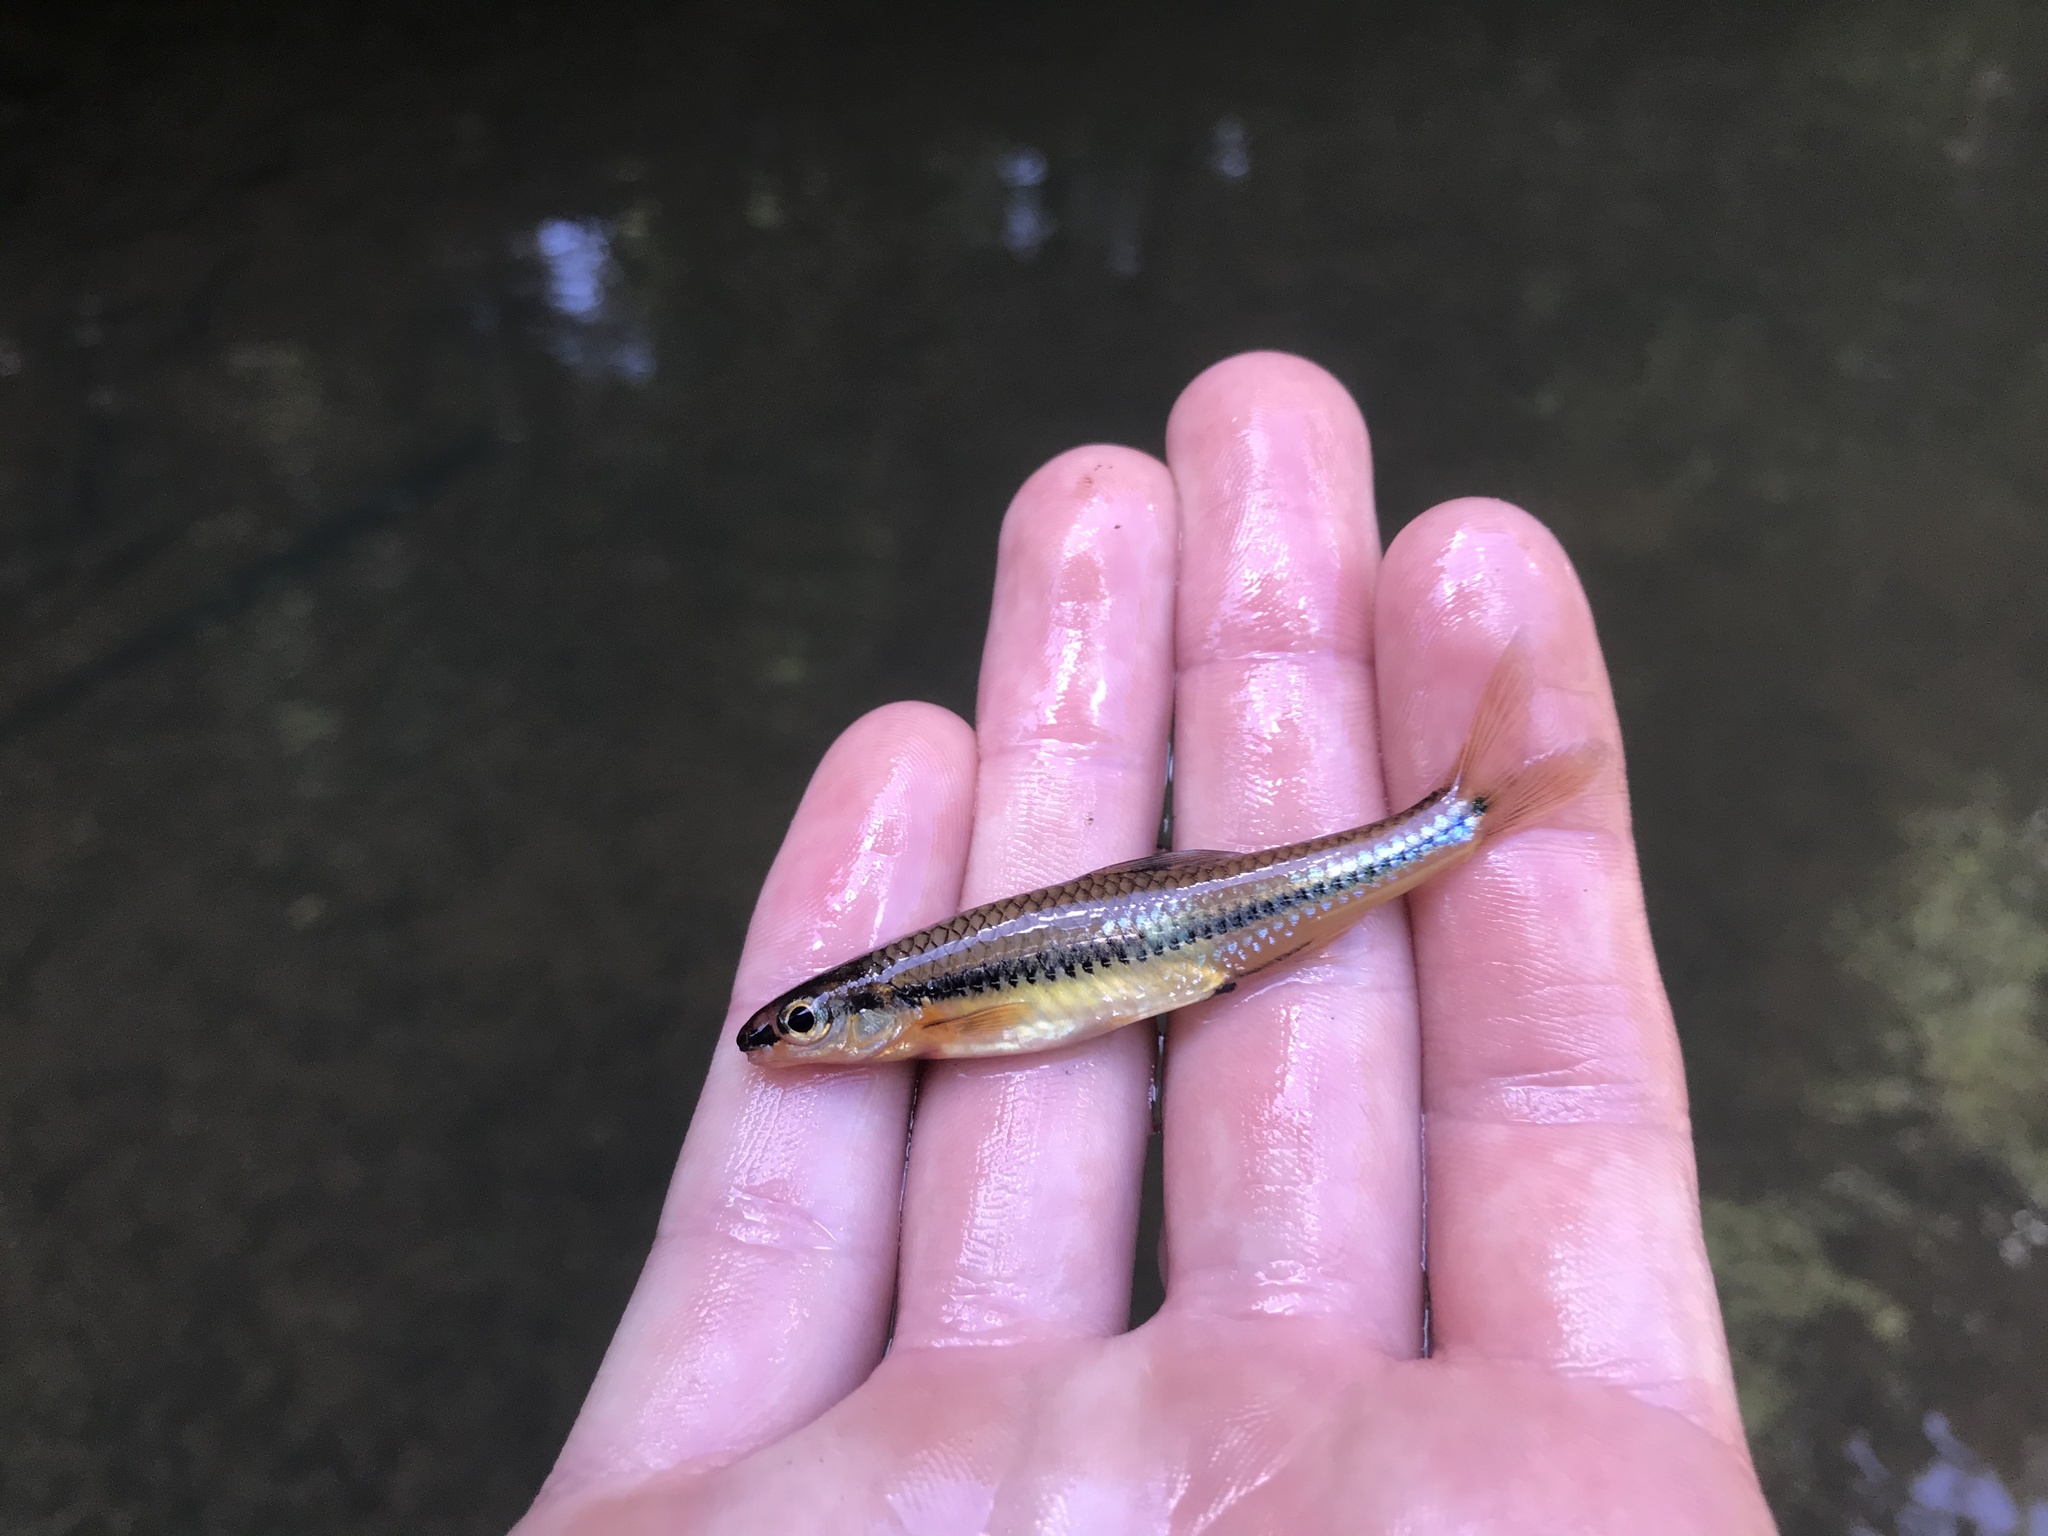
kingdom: Animalia
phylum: Chordata
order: Cypriniformes
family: Cyprinidae
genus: Notropis
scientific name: Notropis
